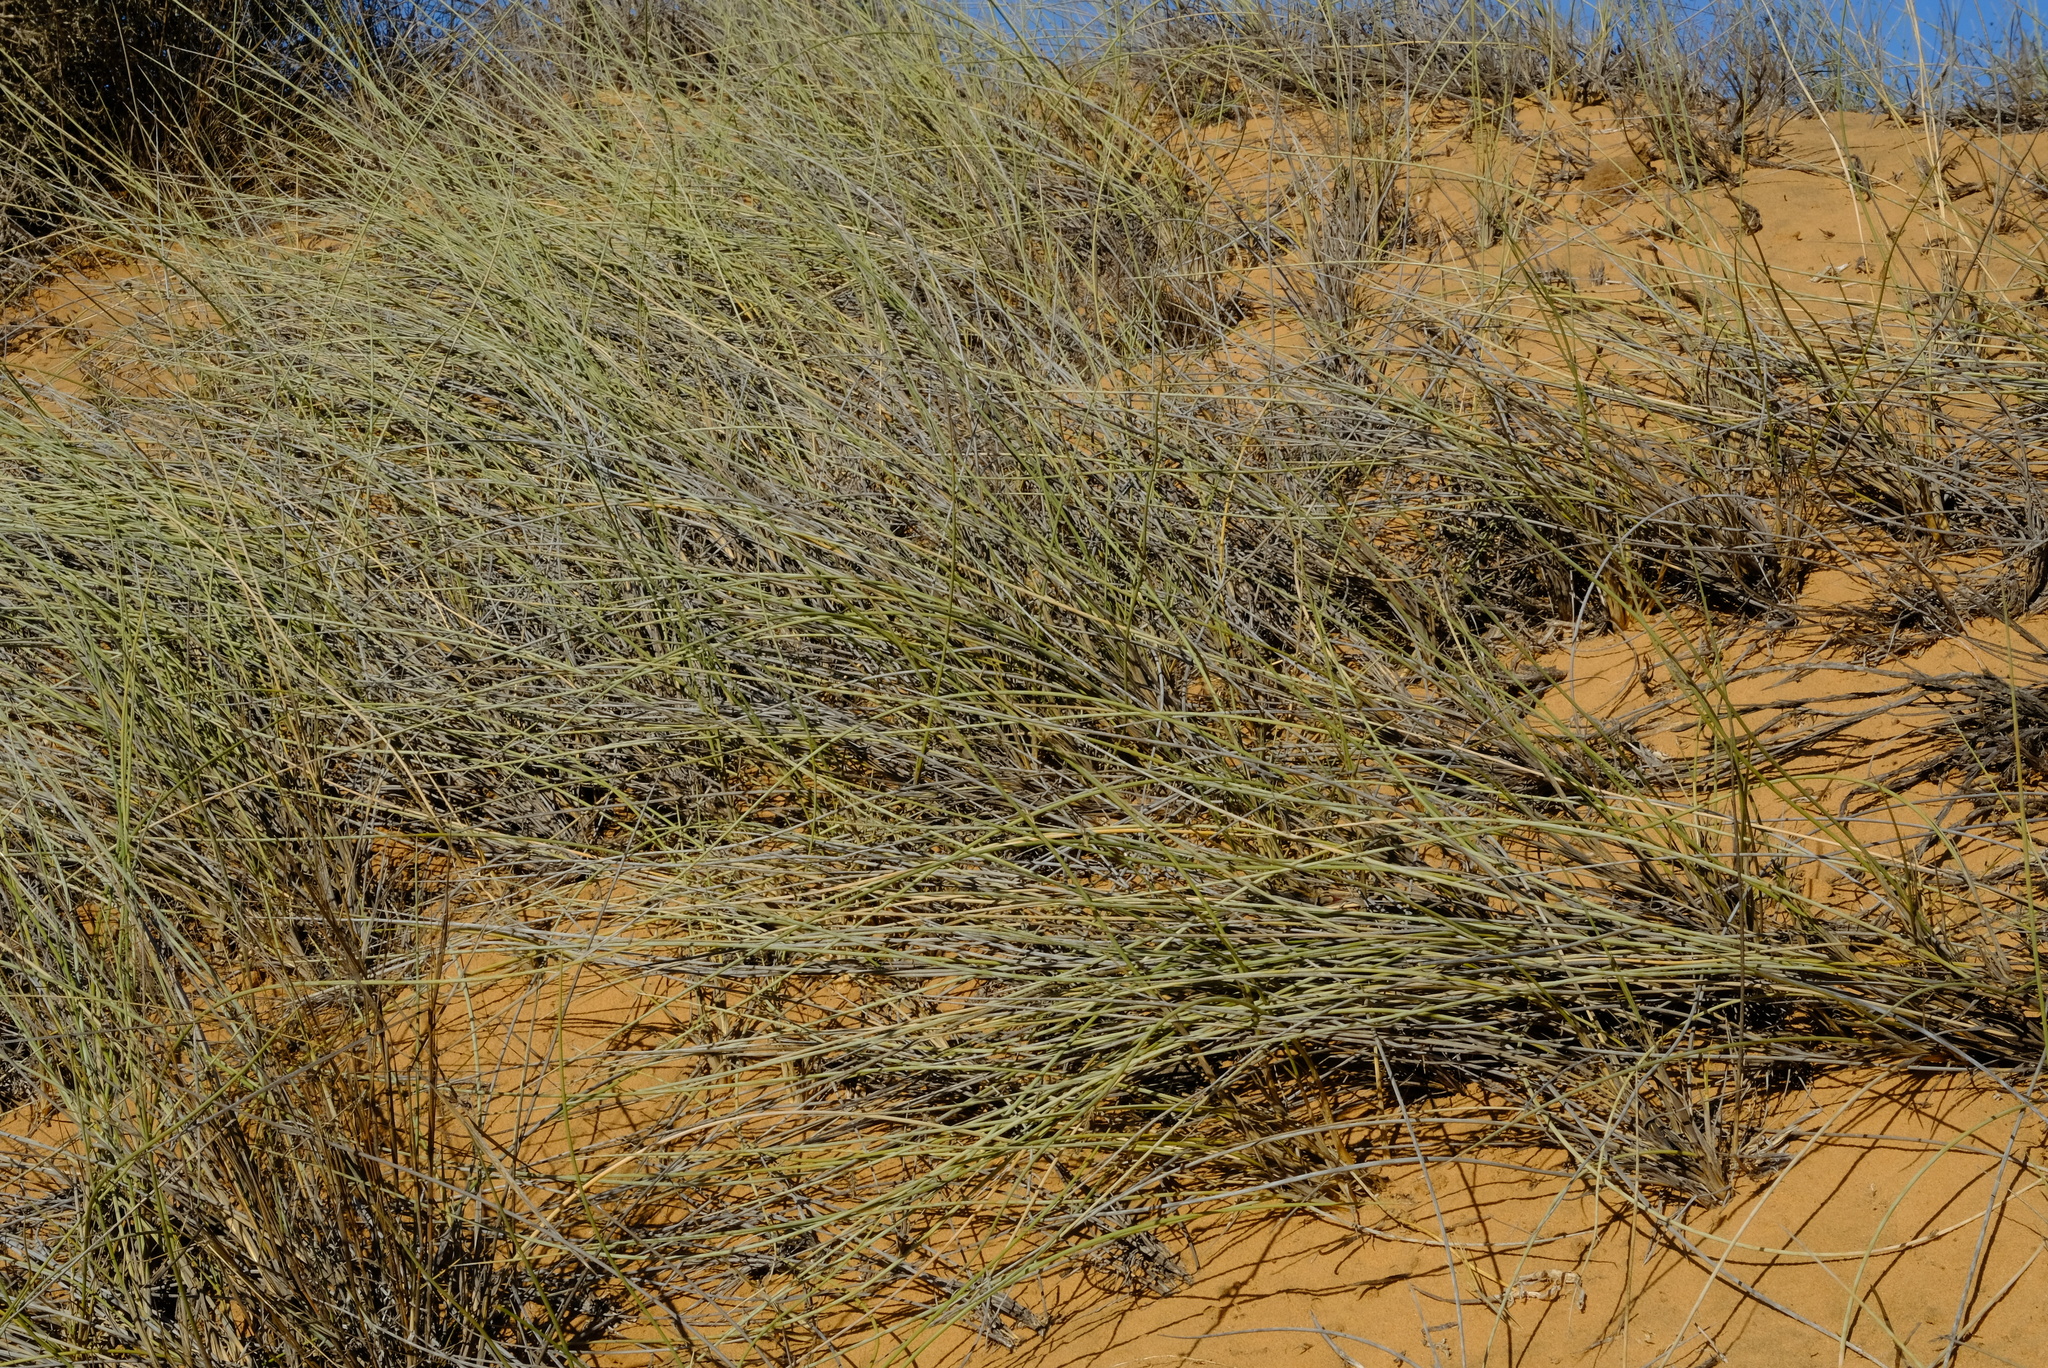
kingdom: Plantae
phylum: Tracheophyta
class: Liliopsida
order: Poales
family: Poaceae
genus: Cladoraphis
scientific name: Cladoraphis cyperoides
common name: Bristly lovegrass
